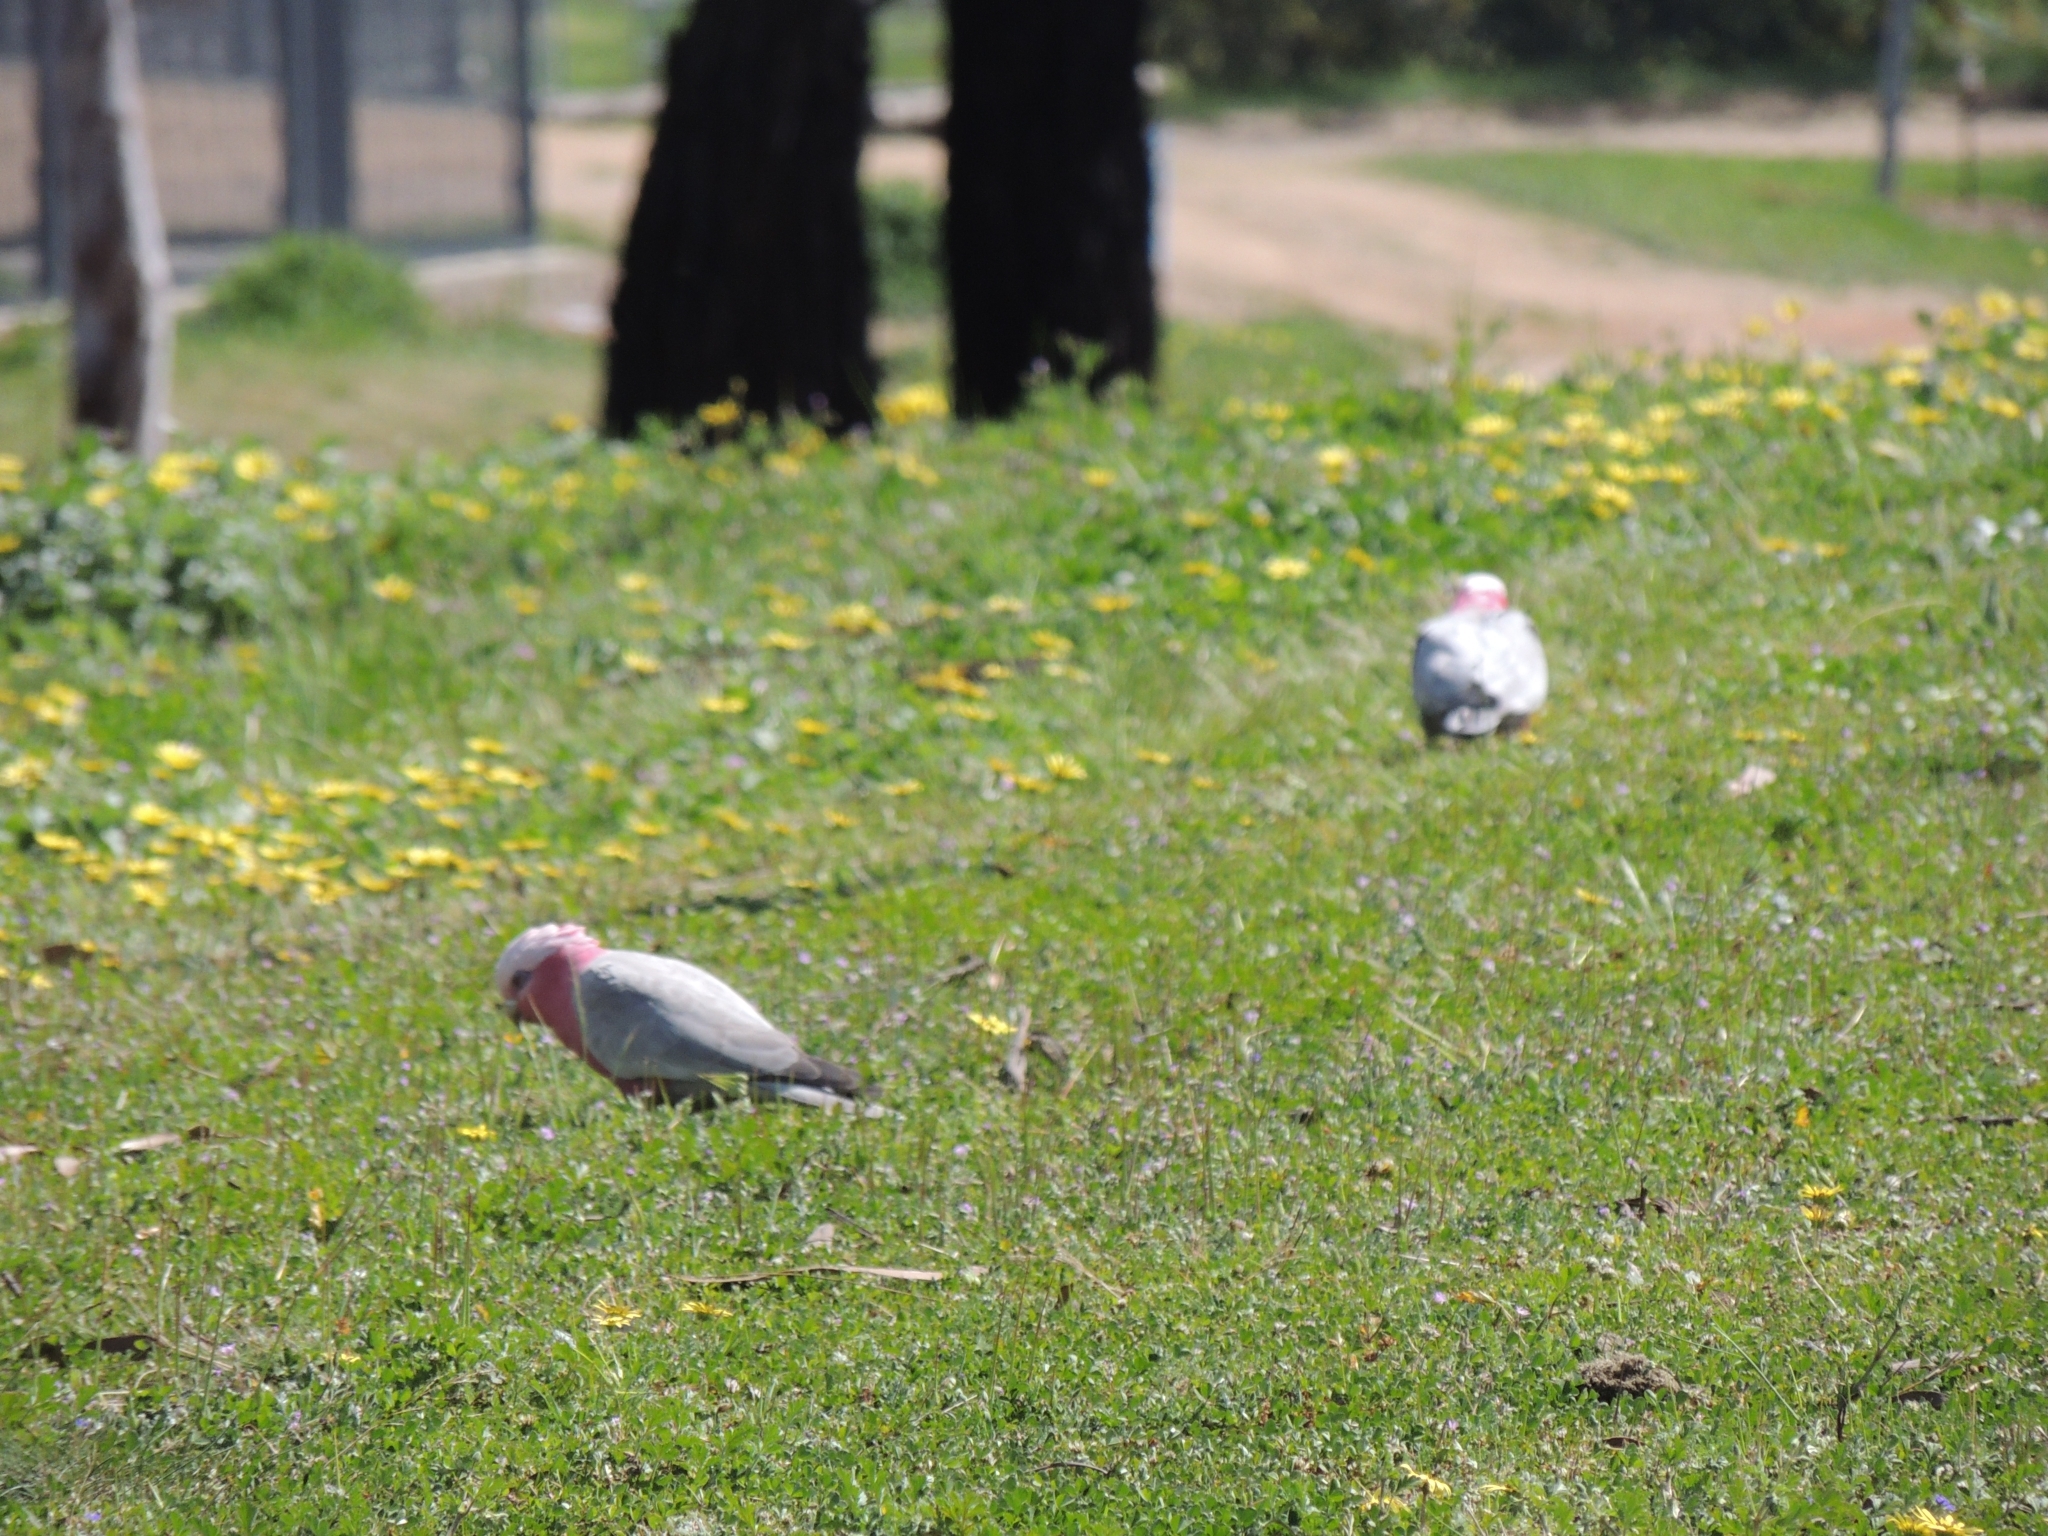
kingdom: Animalia
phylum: Chordata
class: Aves
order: Psittaciformes
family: Psittacidae
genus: Eolophus
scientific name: Eolophus roseicapilla
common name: Galah
